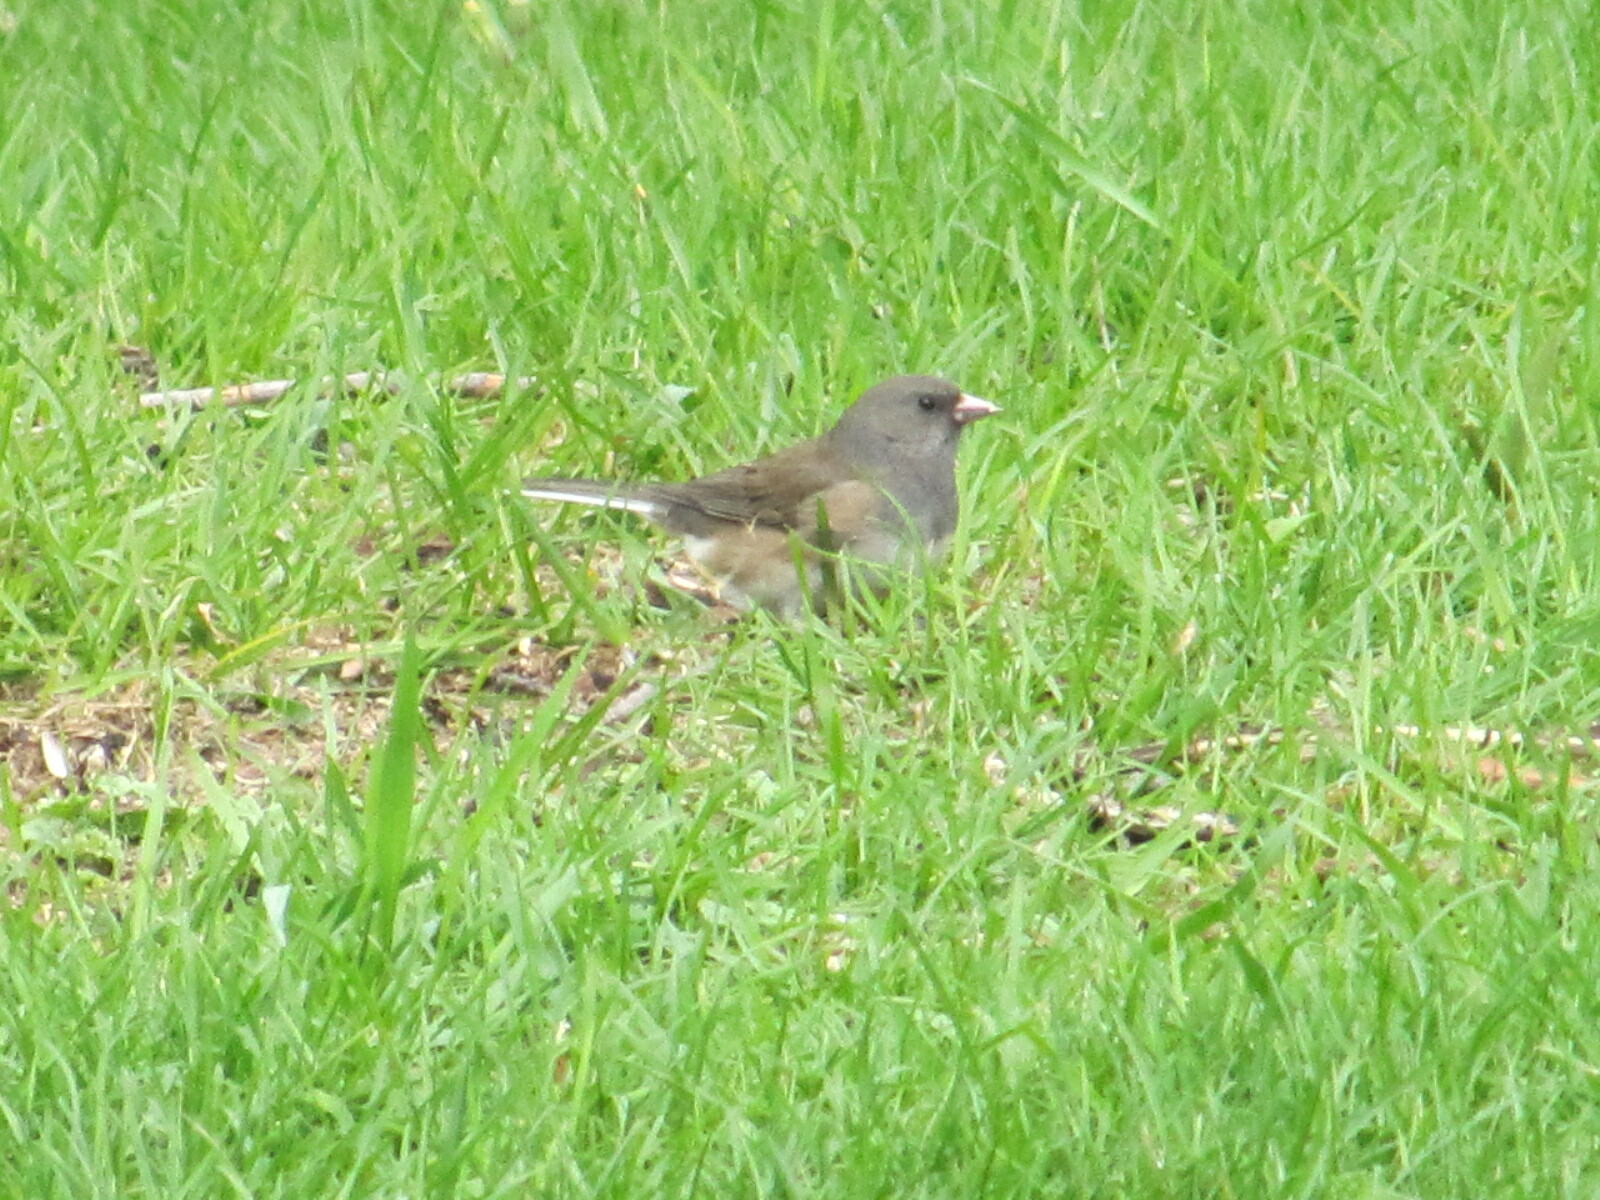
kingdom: Animalia
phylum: Chordata
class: Aves
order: Passeriformes
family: Passerellidae
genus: Junco
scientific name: Junco hyemalis
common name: Dark-eyed junco
